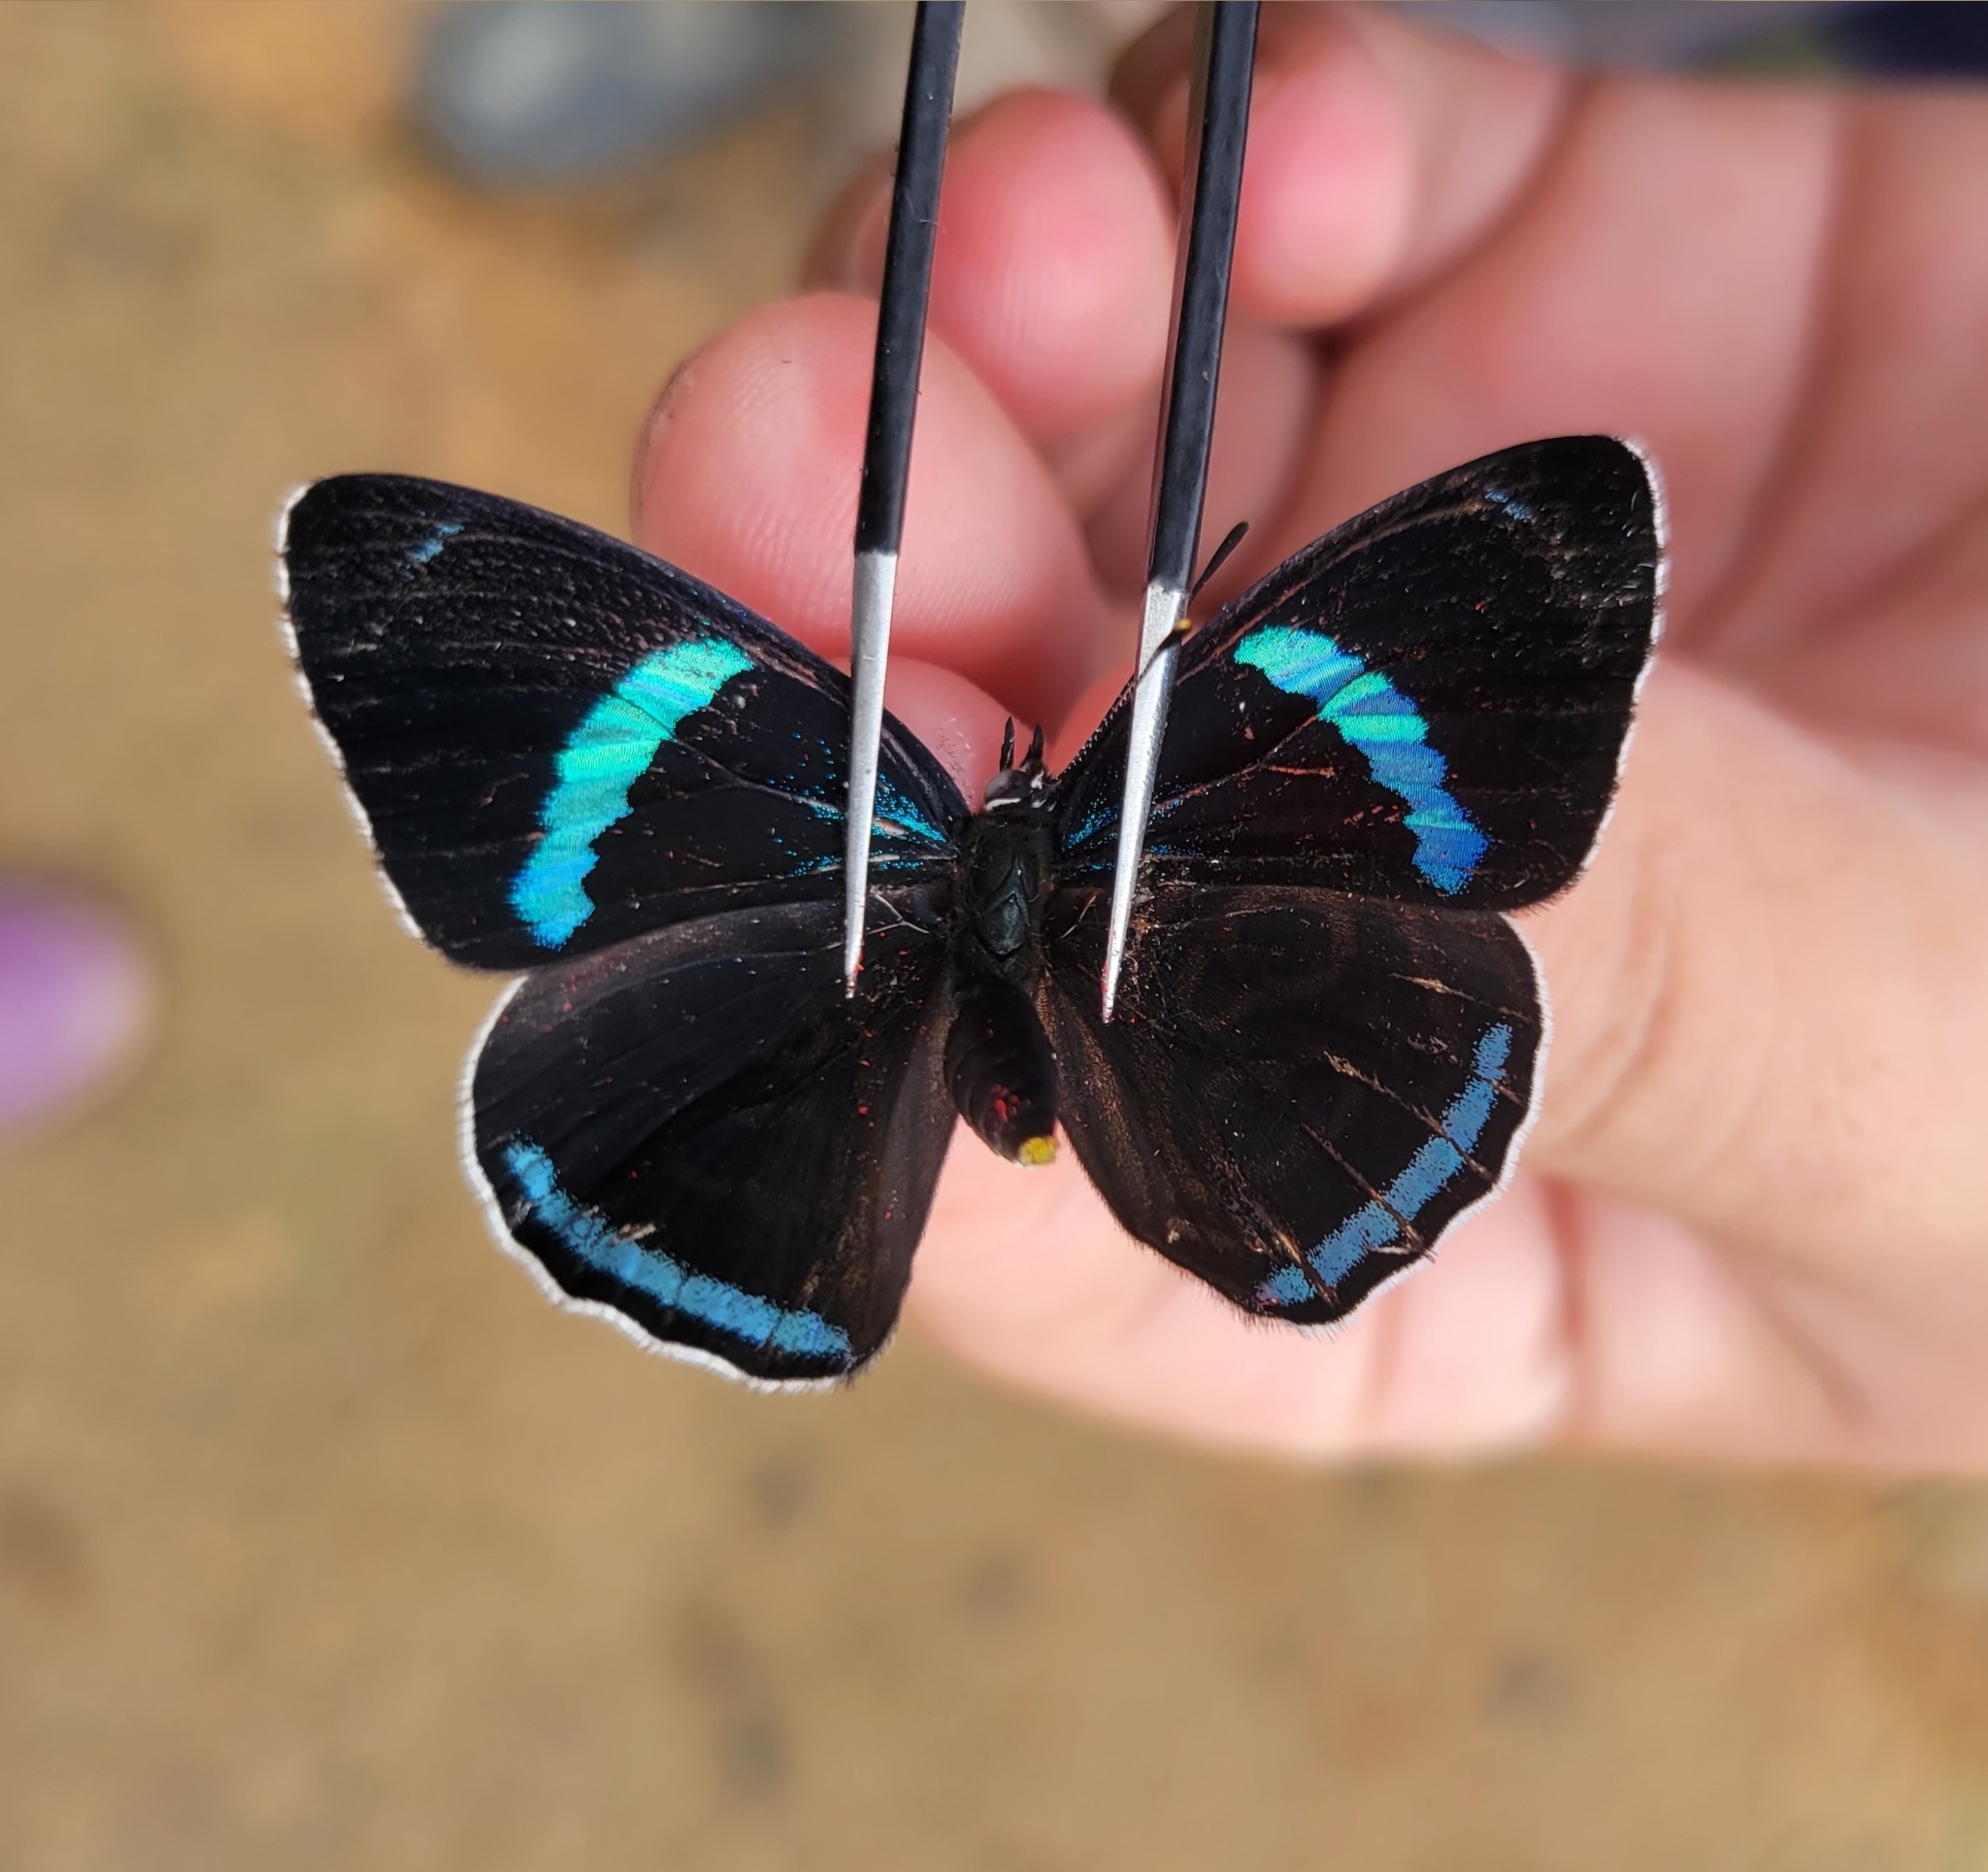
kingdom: Animalia
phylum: Arthropoda
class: Insecta
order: Lepidoptera
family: Nymphalidae
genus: Diaethria
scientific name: Diaethria clymena
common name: Widespread eighty-eight
